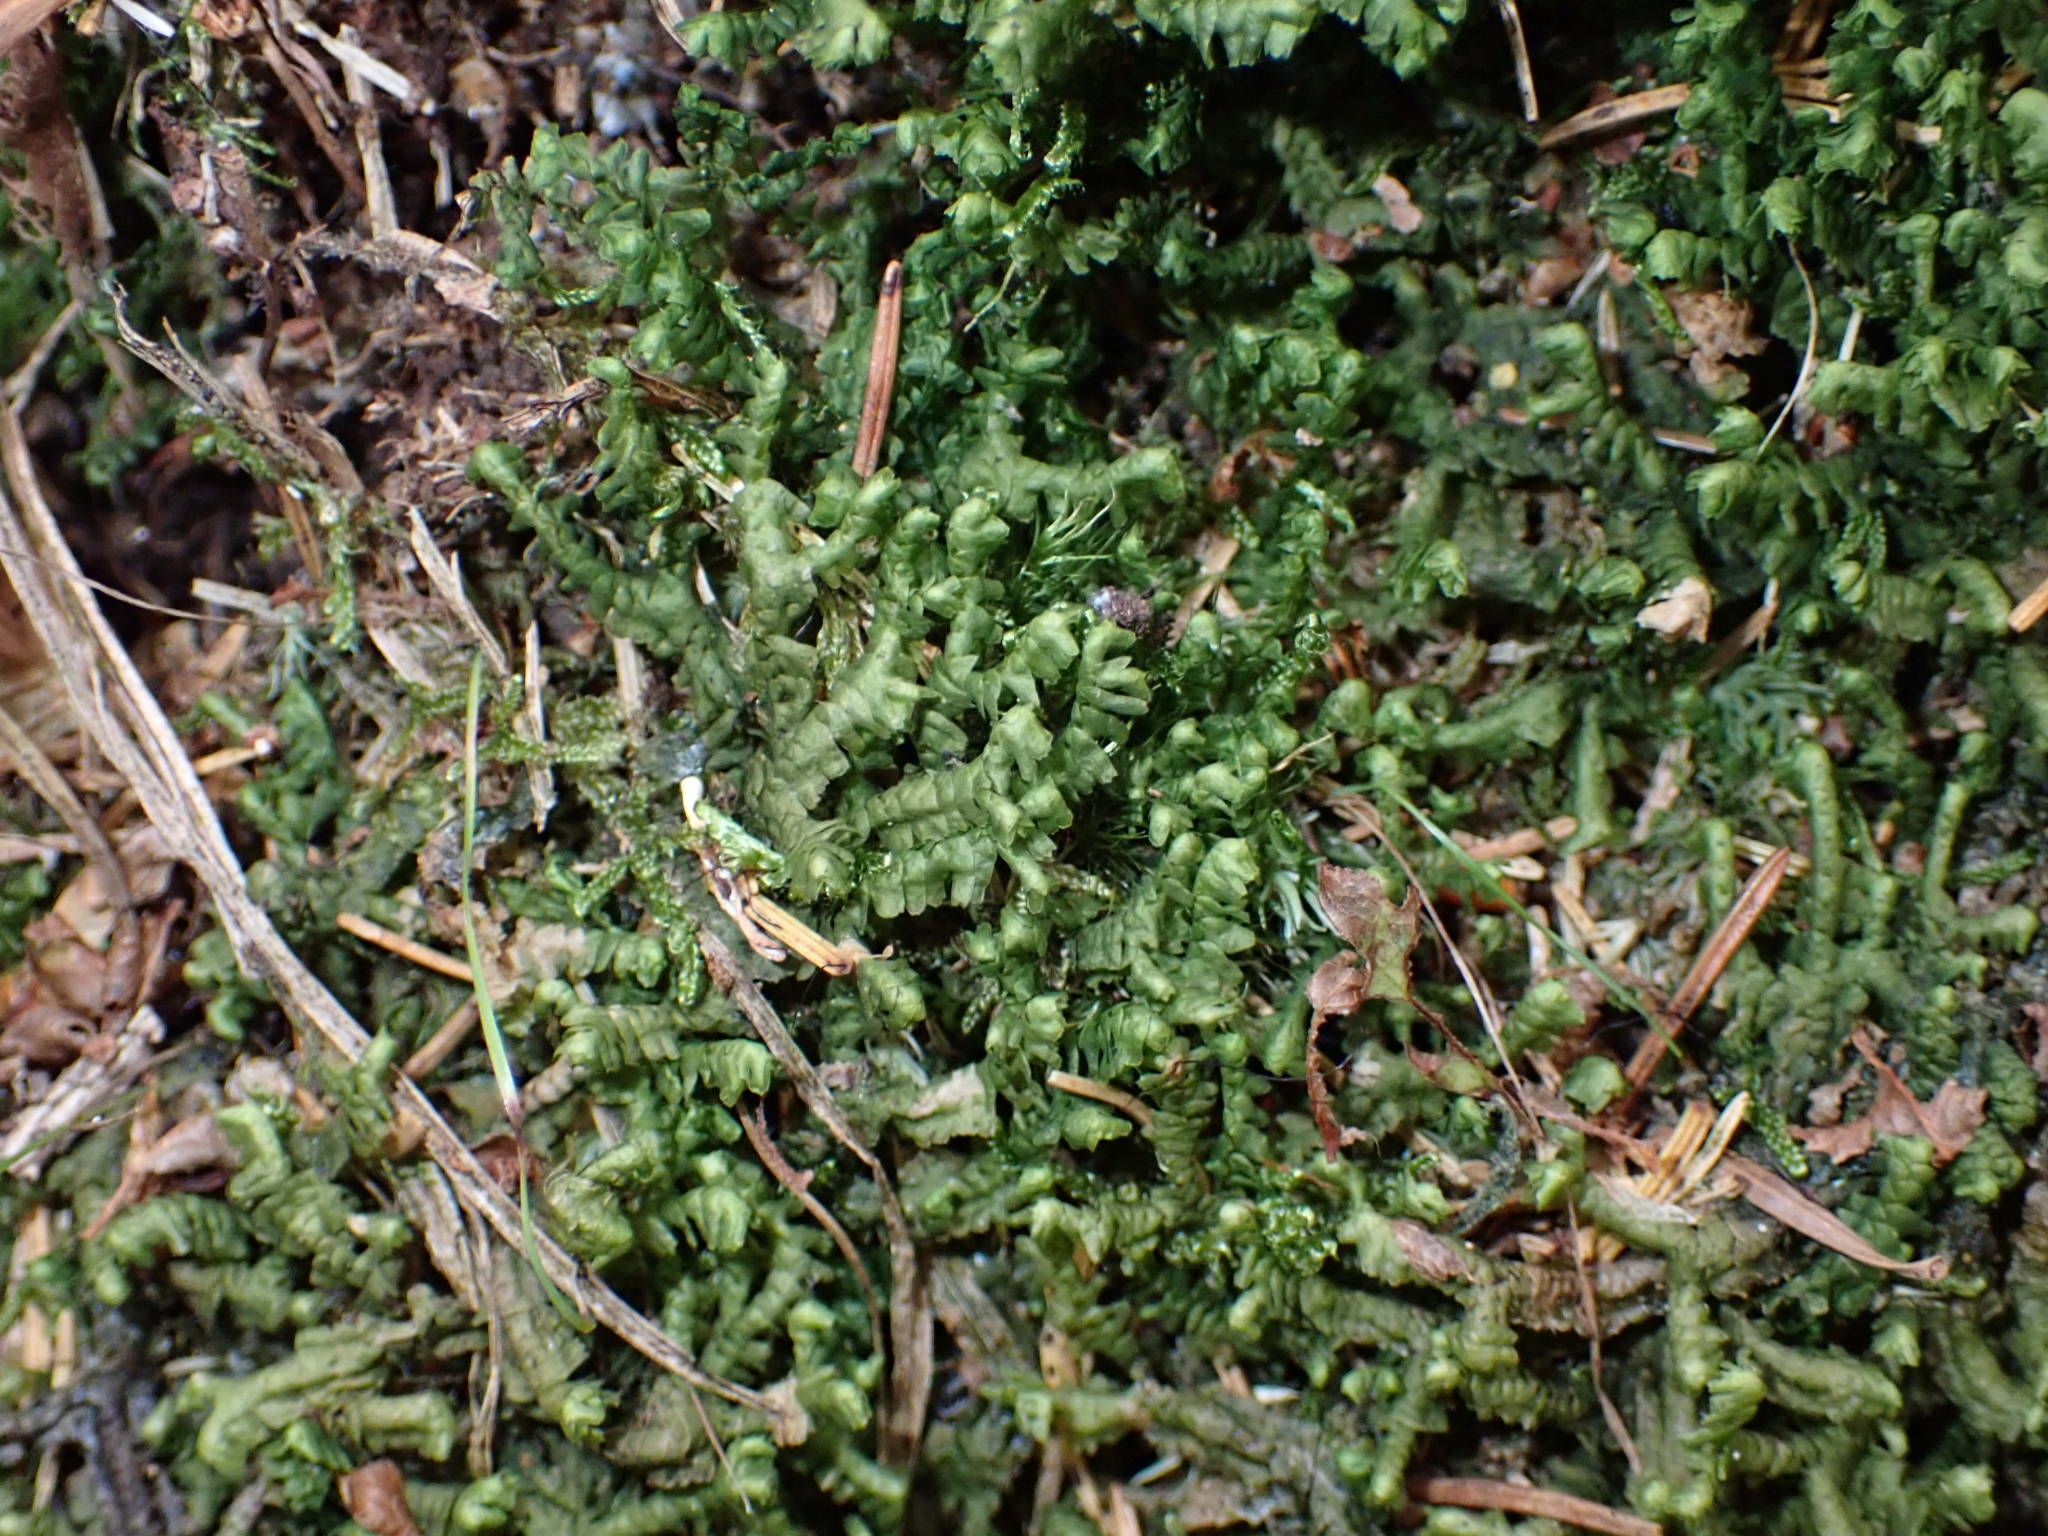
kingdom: Plantae
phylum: Marchantiophyta
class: Jungermanniopsida
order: Jungermanniales
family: Lepidoziaceae
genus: Bazzania
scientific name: Bazzania trilobata
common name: Three-lobed whipwort
